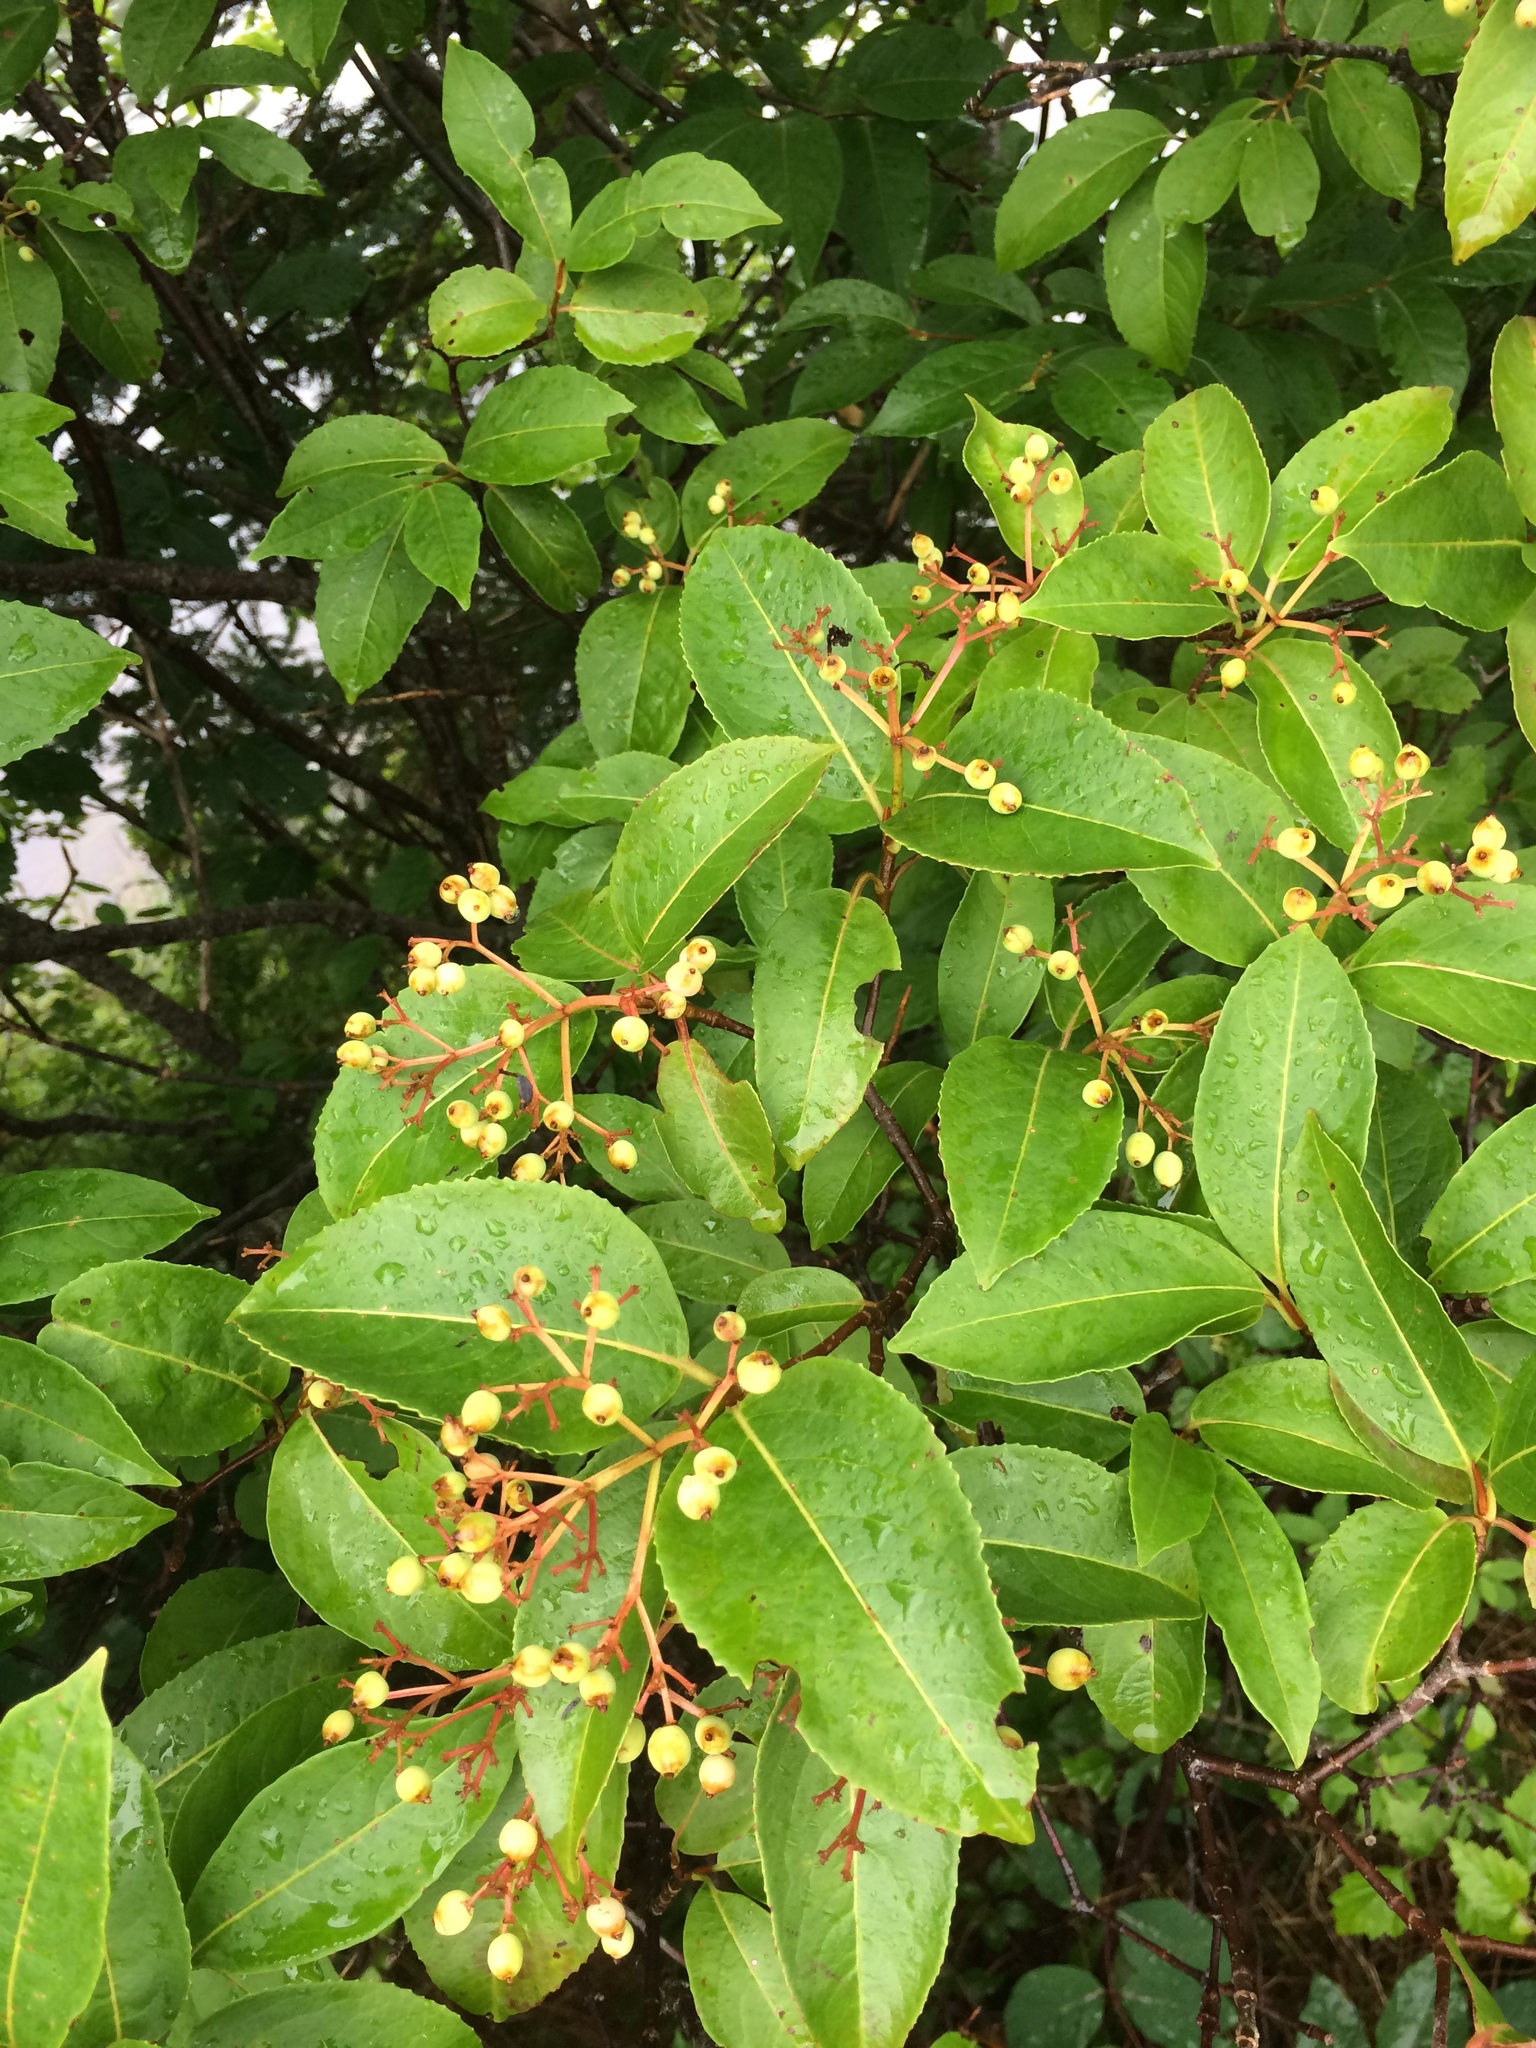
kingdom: Plantae
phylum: Tracheophyta
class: Magnoliopsida
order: Dipsacales
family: Viburnaceae
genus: Viburnum
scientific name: Viburnum cassinoides
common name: Swamp haw
